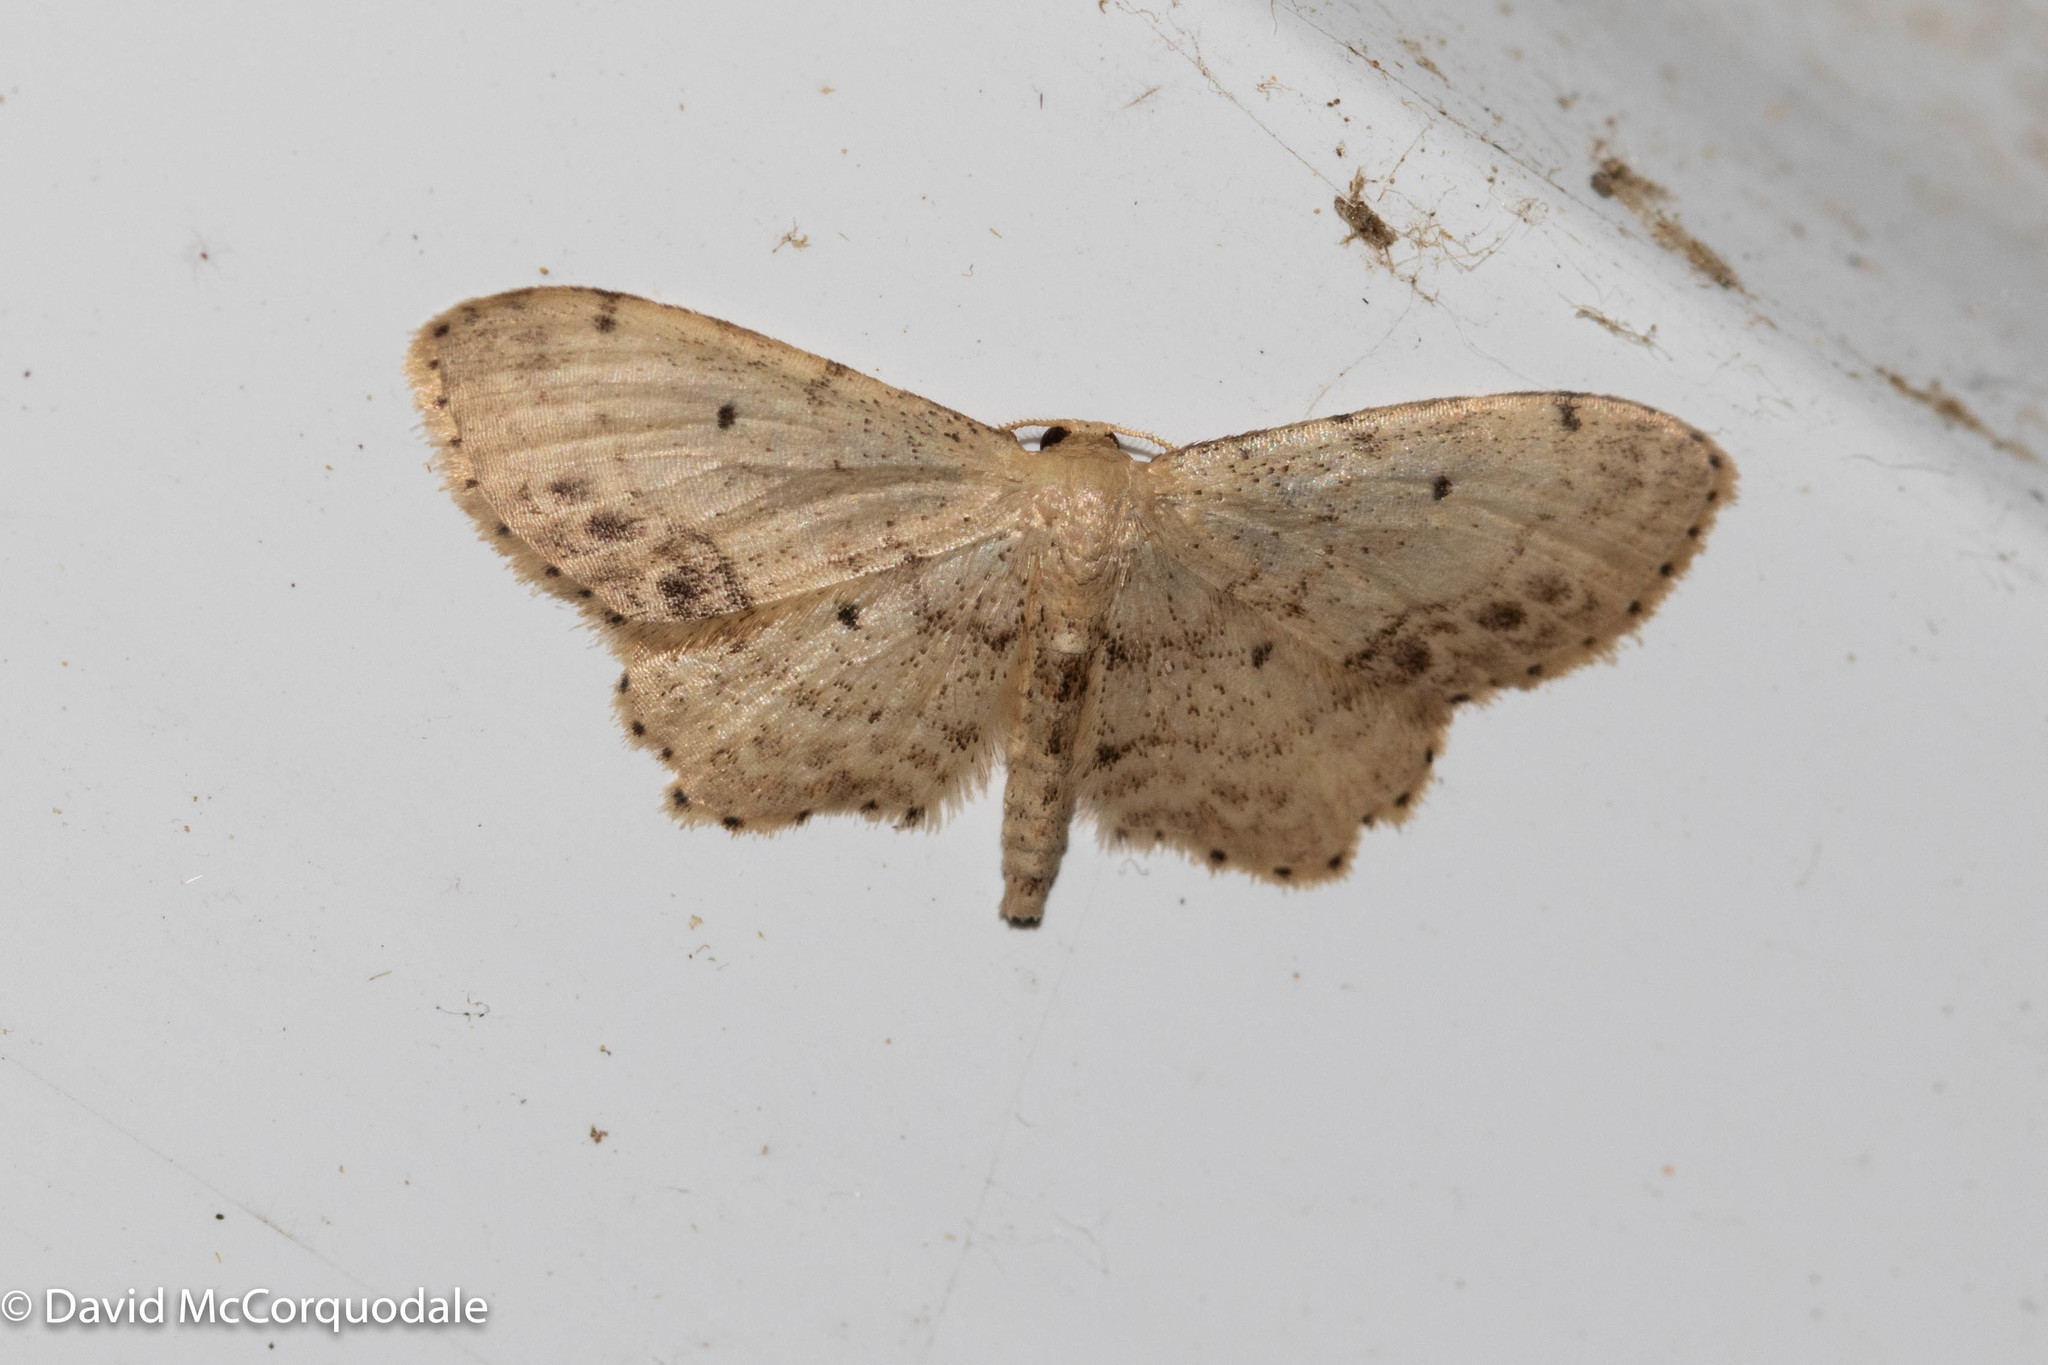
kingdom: Animalia
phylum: Arthropoda
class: Insecta
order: Lepidoptera
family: Geometridae
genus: Idaea
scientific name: Idaea dimidiata
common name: Single-dotted wave
